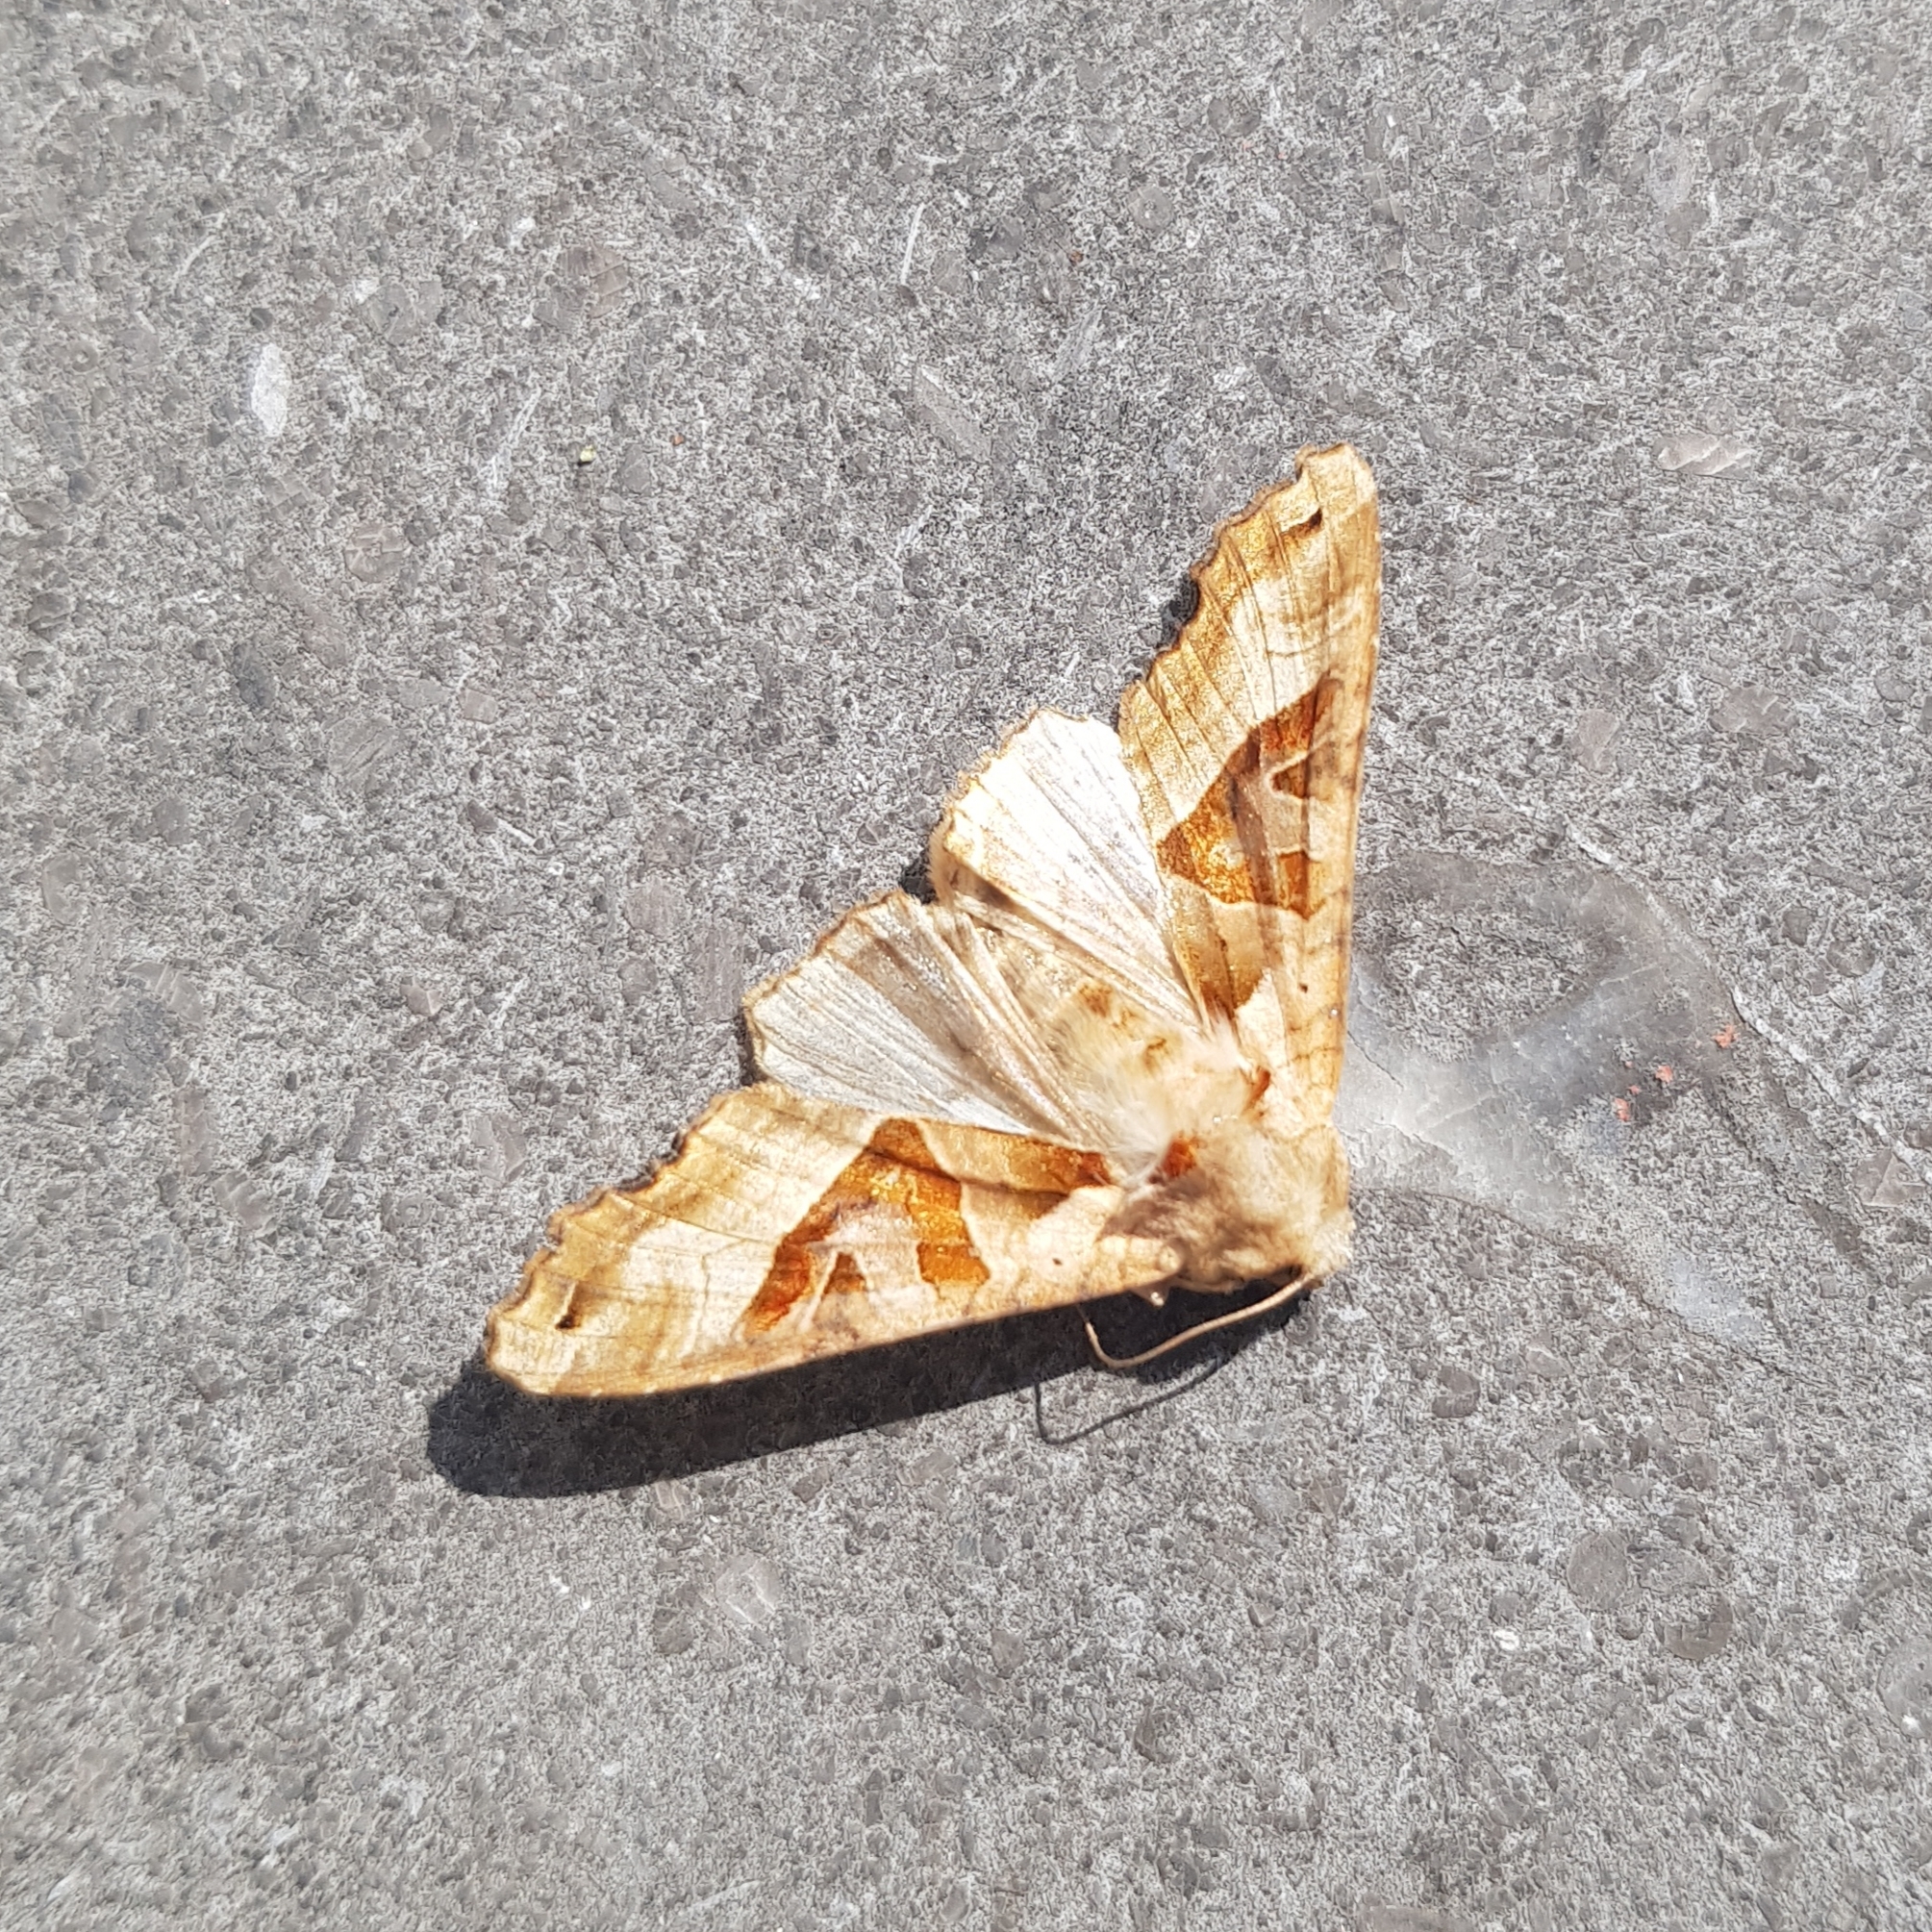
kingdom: Animalia
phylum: Arthropoda
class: Insecta
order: Lepidoptera
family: Noctuidae
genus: Phlogophora
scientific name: Phlogophora meticulosa
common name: Angle shades
